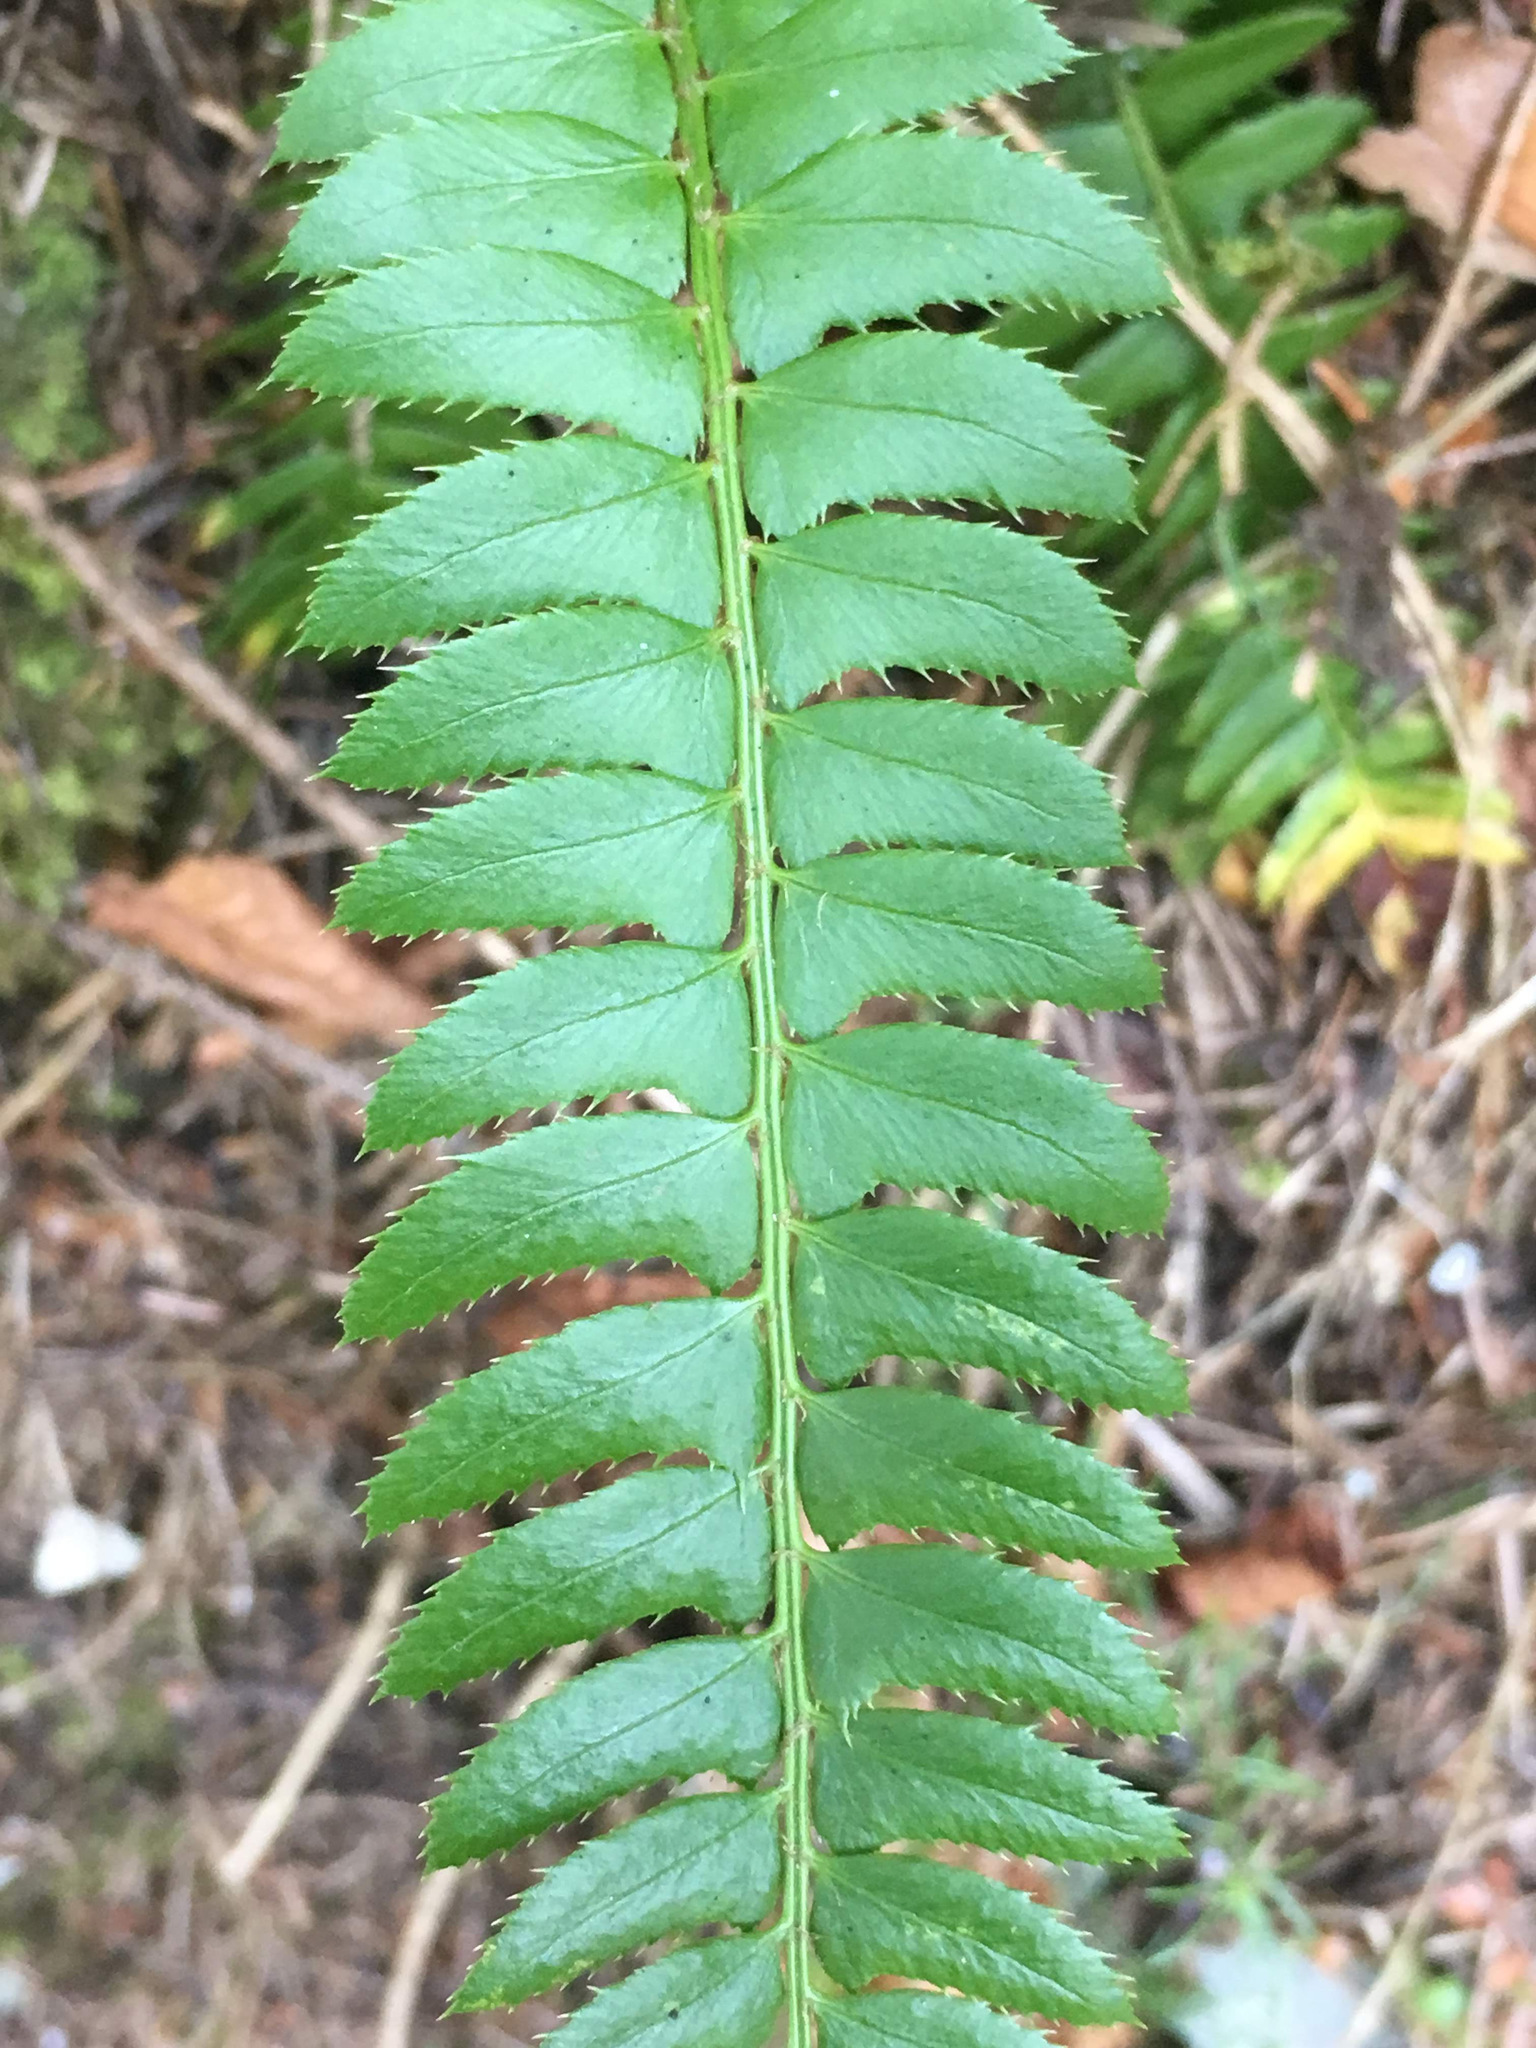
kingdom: Plantae
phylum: Tracheophyta
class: Polypodiopsida
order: Polypodiales
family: Dryopteridaceae
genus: Polystichum
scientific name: Polystichum lonchitis
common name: Holly fern
